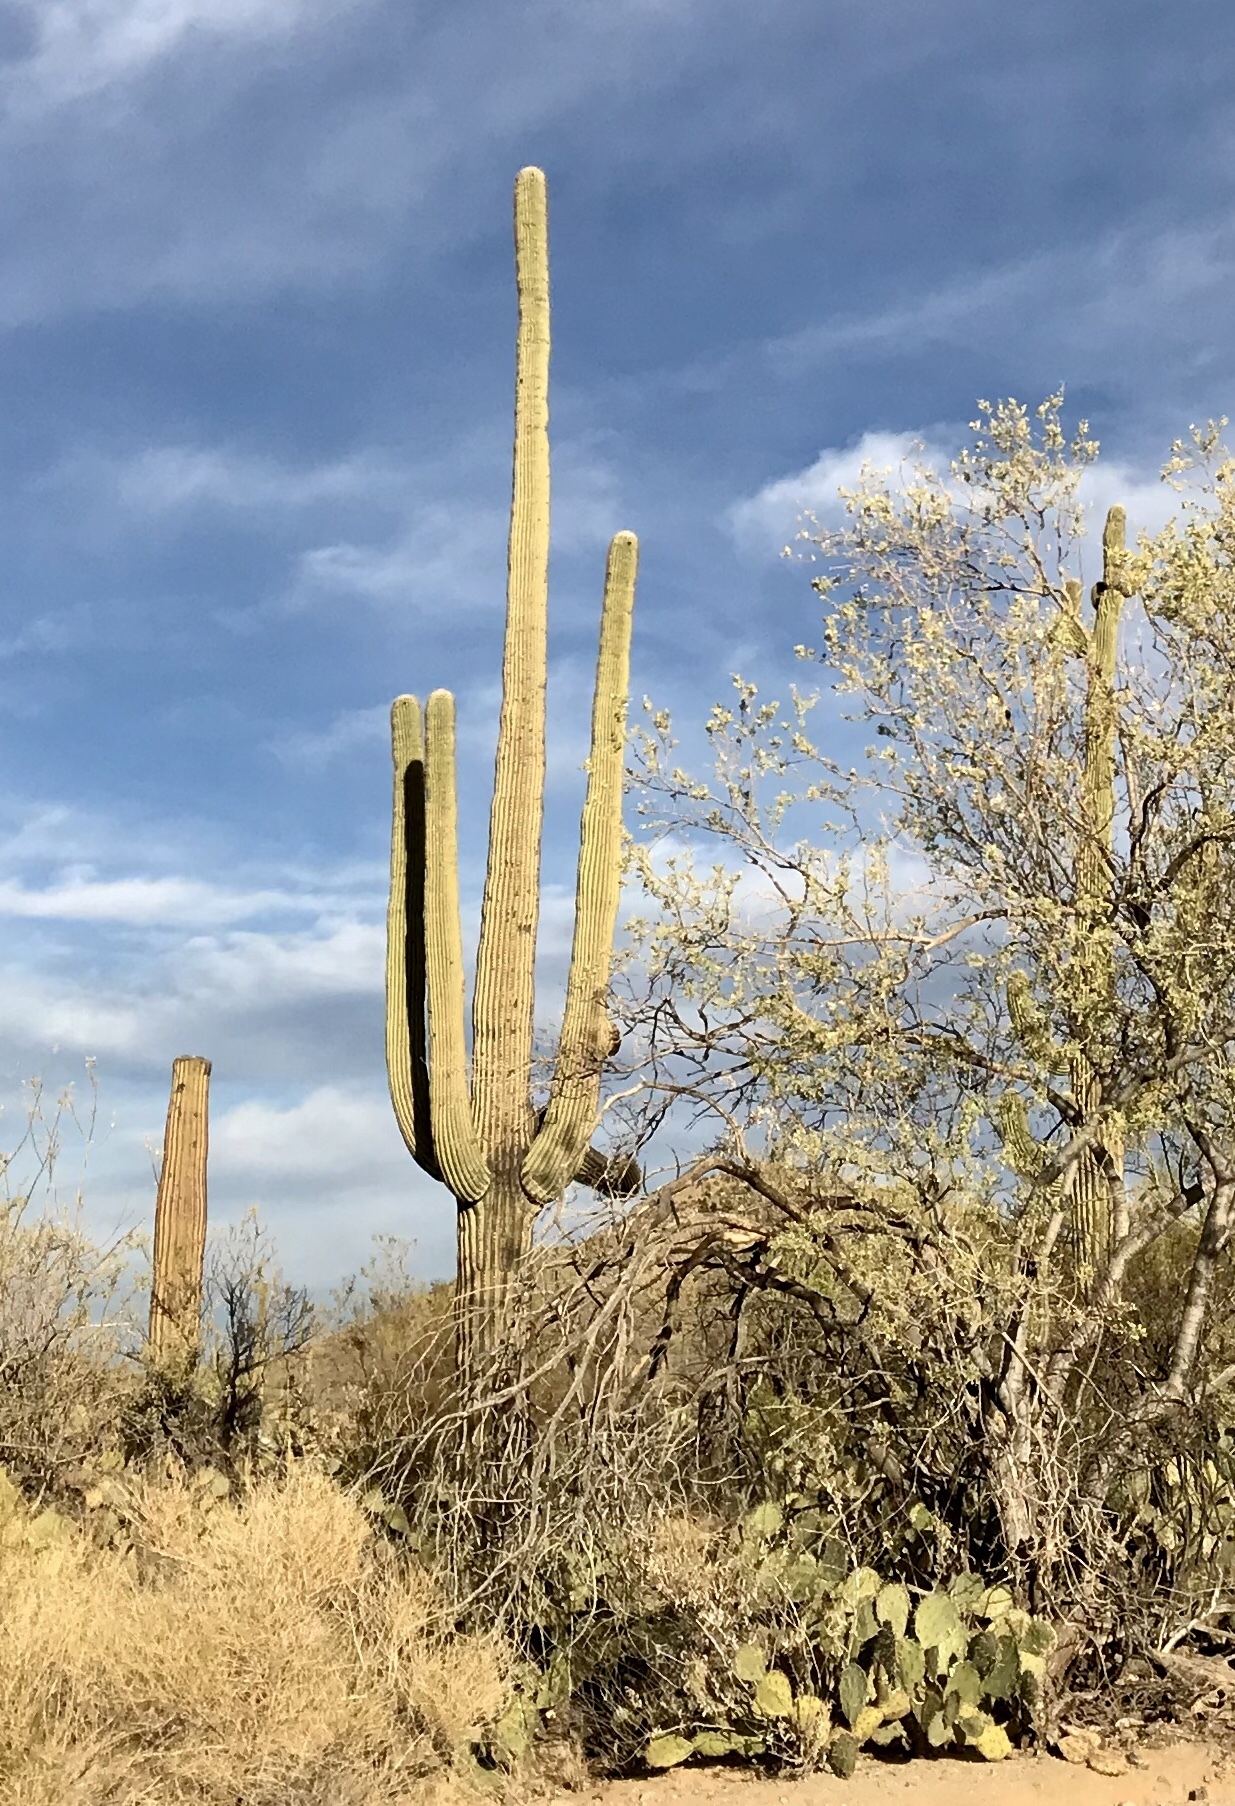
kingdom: Plantae
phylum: Tracheophyta
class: Magnoliopsida
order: Caryophyllales
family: Cactaceae
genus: Carnegiea
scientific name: Carnegiea gigantea
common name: Saguaro
